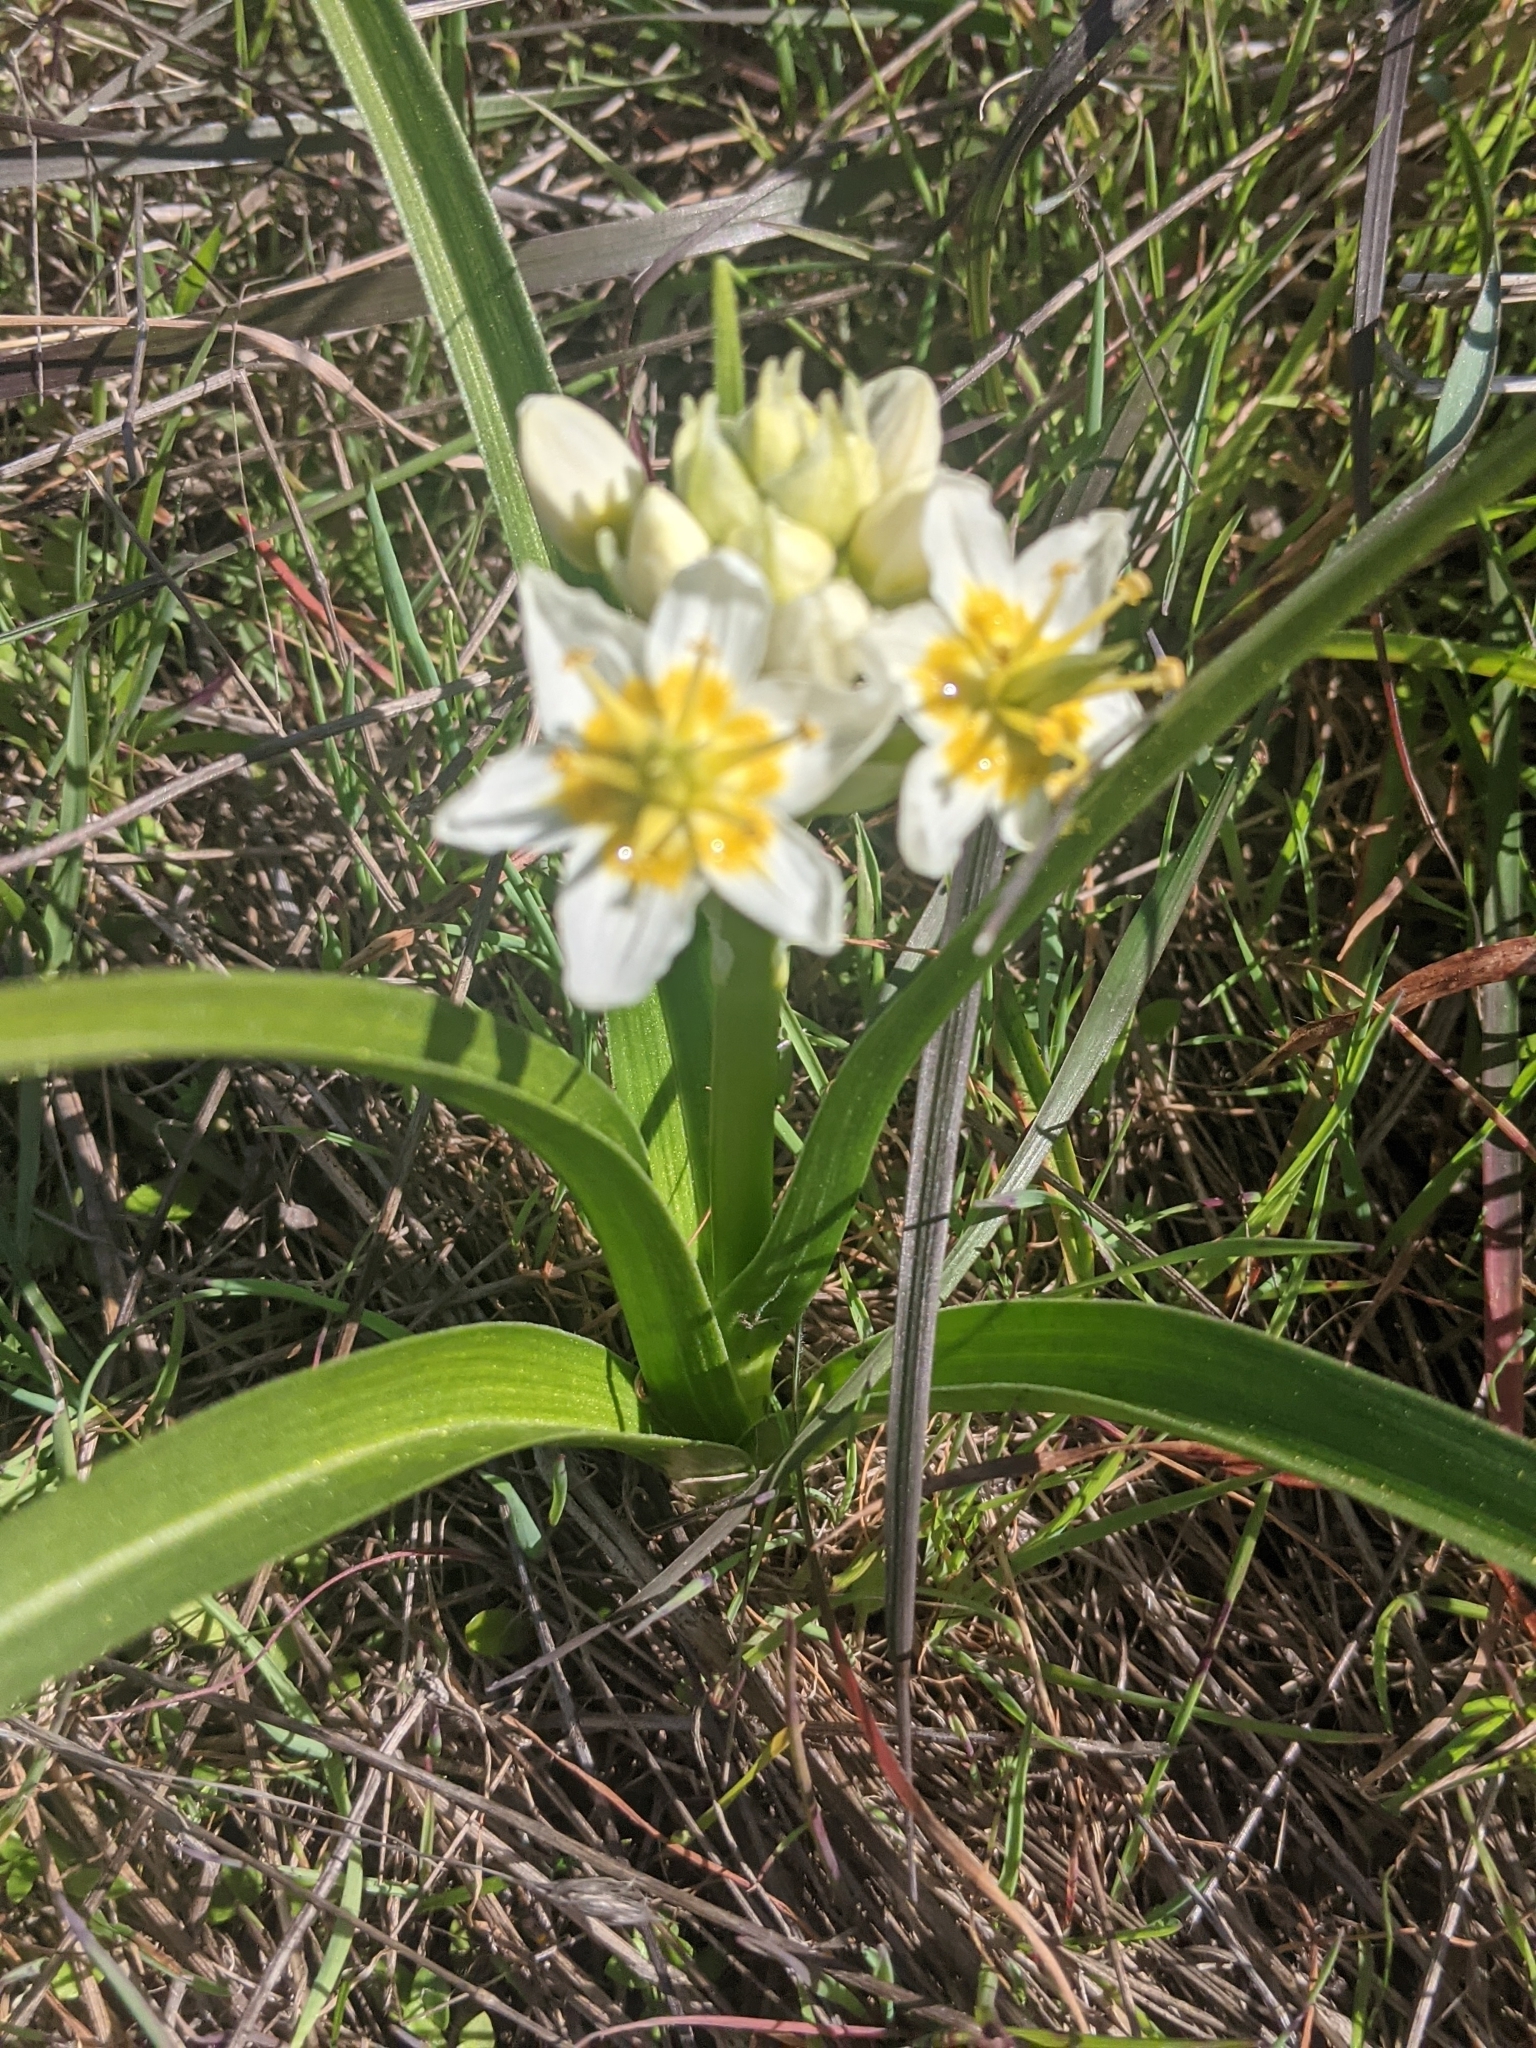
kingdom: Plantae
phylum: Tracheophyta
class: Liliopsida
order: Liliales
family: Melanthiaceae
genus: Toxicoscordion
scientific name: Toxicoscordion fremontii
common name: Fremont's death camas
